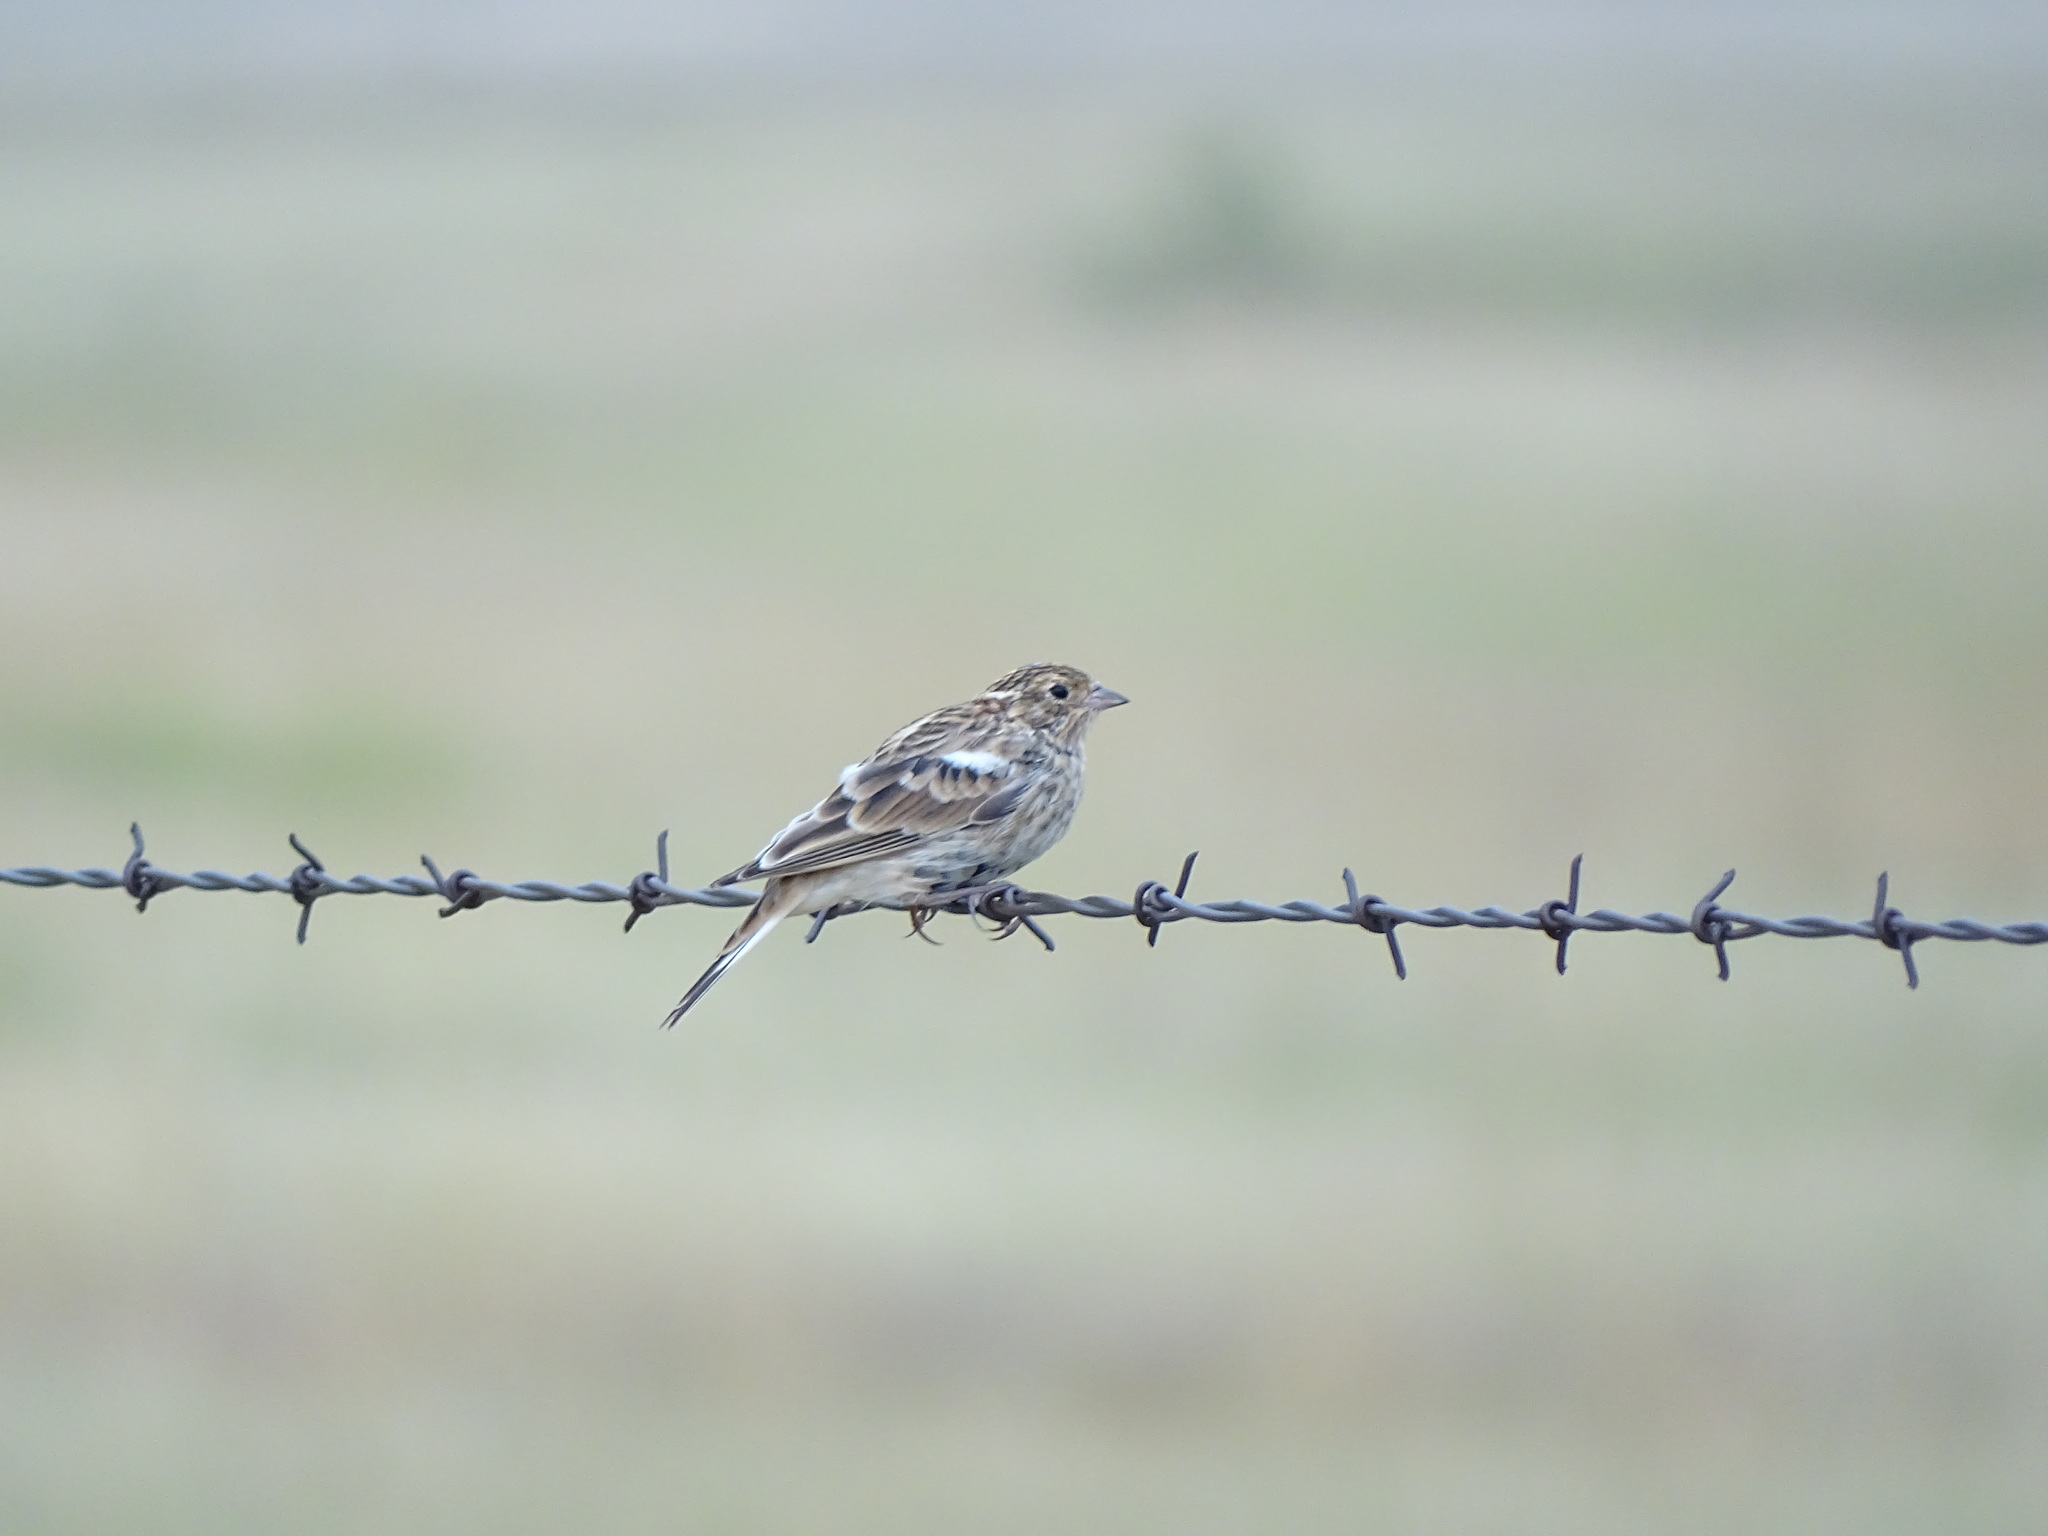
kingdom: Animalia
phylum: Chordata
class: Aves
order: Passeriformes
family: Calcariidae
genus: Rhynchophanes
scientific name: Rhynchophanes mccownii
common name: Mccown's longspur
